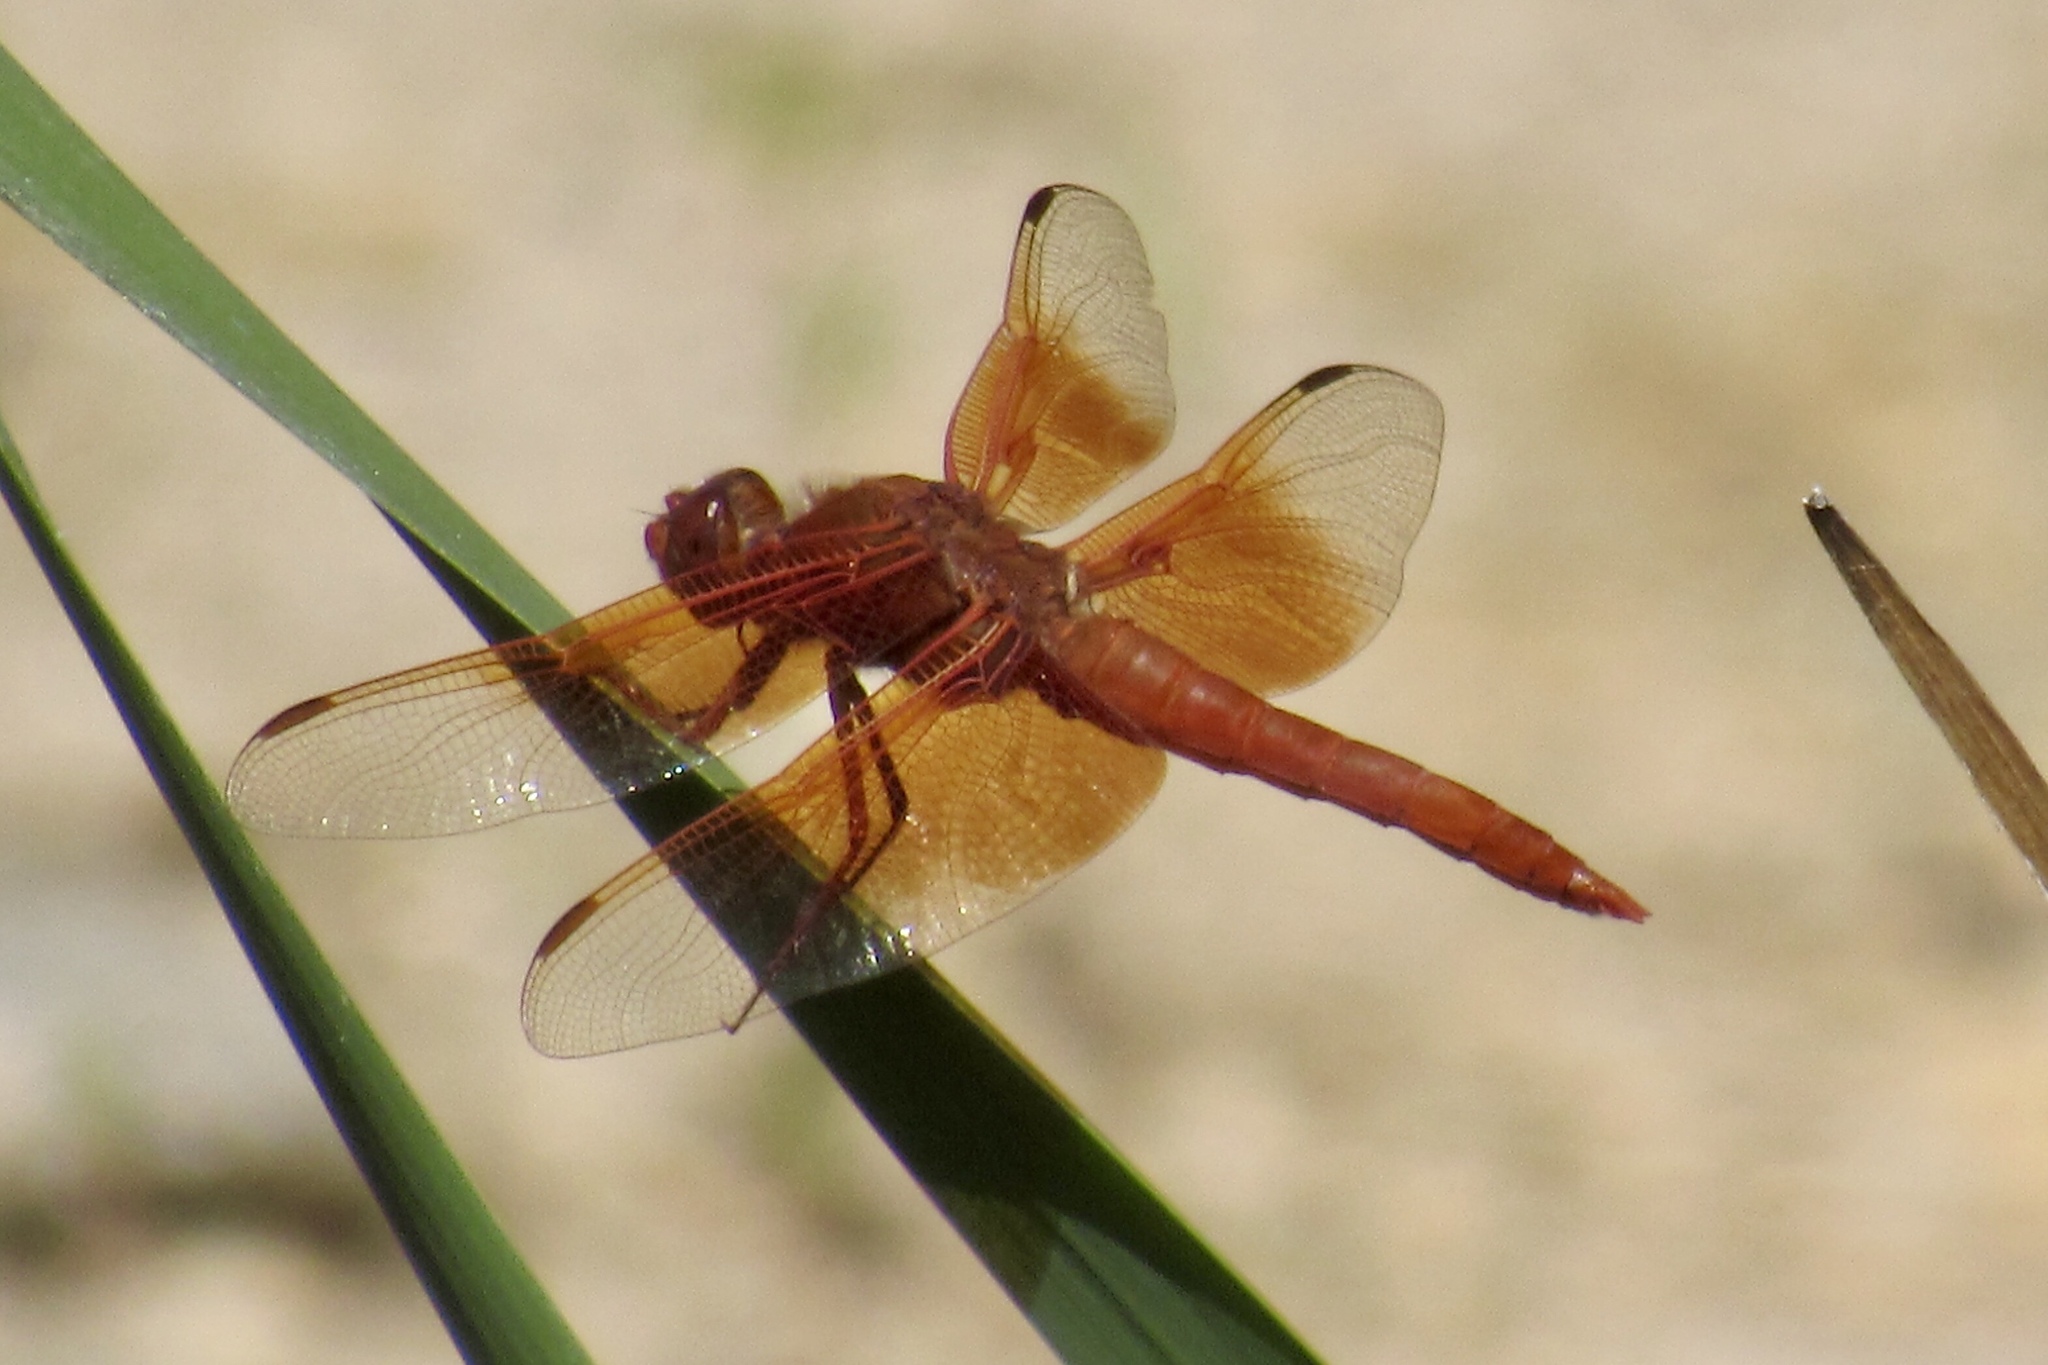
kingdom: Animalia
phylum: Arthropoda
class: Insecta
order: Odonata
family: Libellulidae
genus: Libellula
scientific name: Libellula saturata
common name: Flame skimmer
